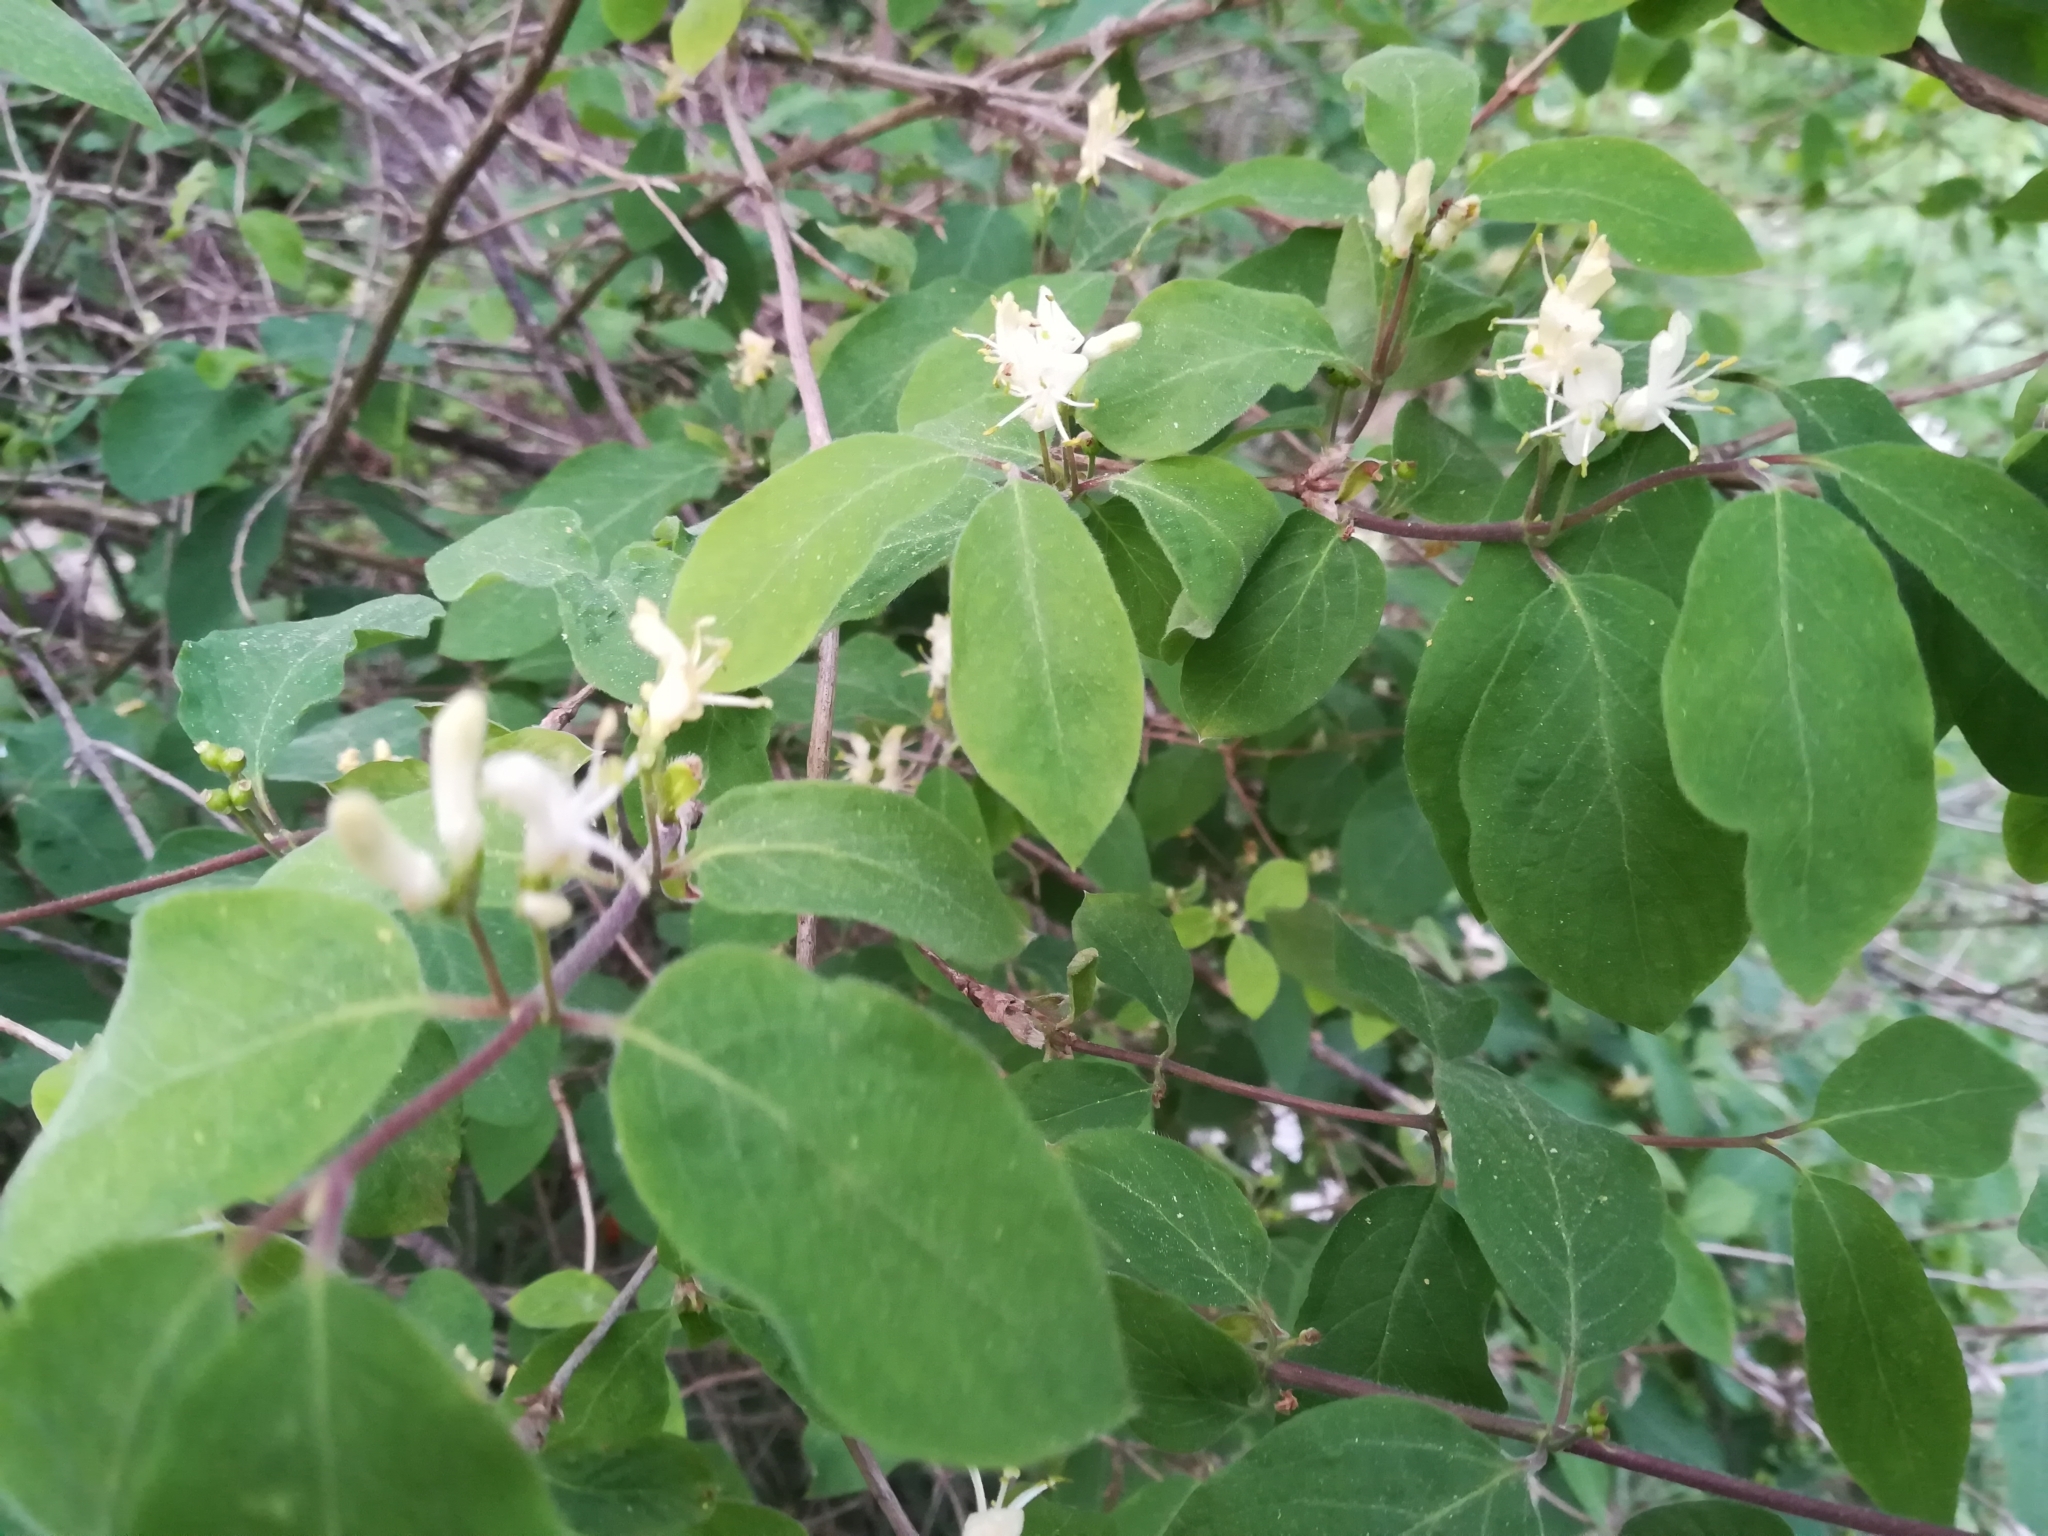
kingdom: Plantae
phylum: Tracheophyta
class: Magnoliopsida
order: Dipsacales
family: Caprifoliaceae
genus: Lonicera
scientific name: Lonicera xylosteum
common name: Fly honeysuckle
